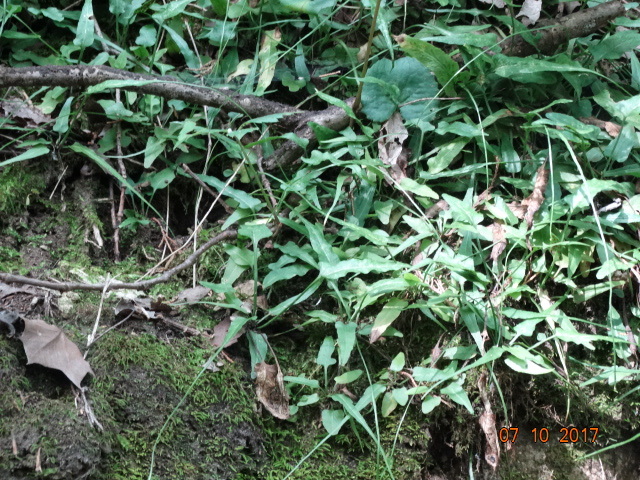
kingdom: Plantae
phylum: Tracheophyta
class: Polypodiopsida
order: Polypodiales
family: Aspleniaceae
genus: Asplenium
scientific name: Asplenium rhizophyllum
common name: Walking fern
